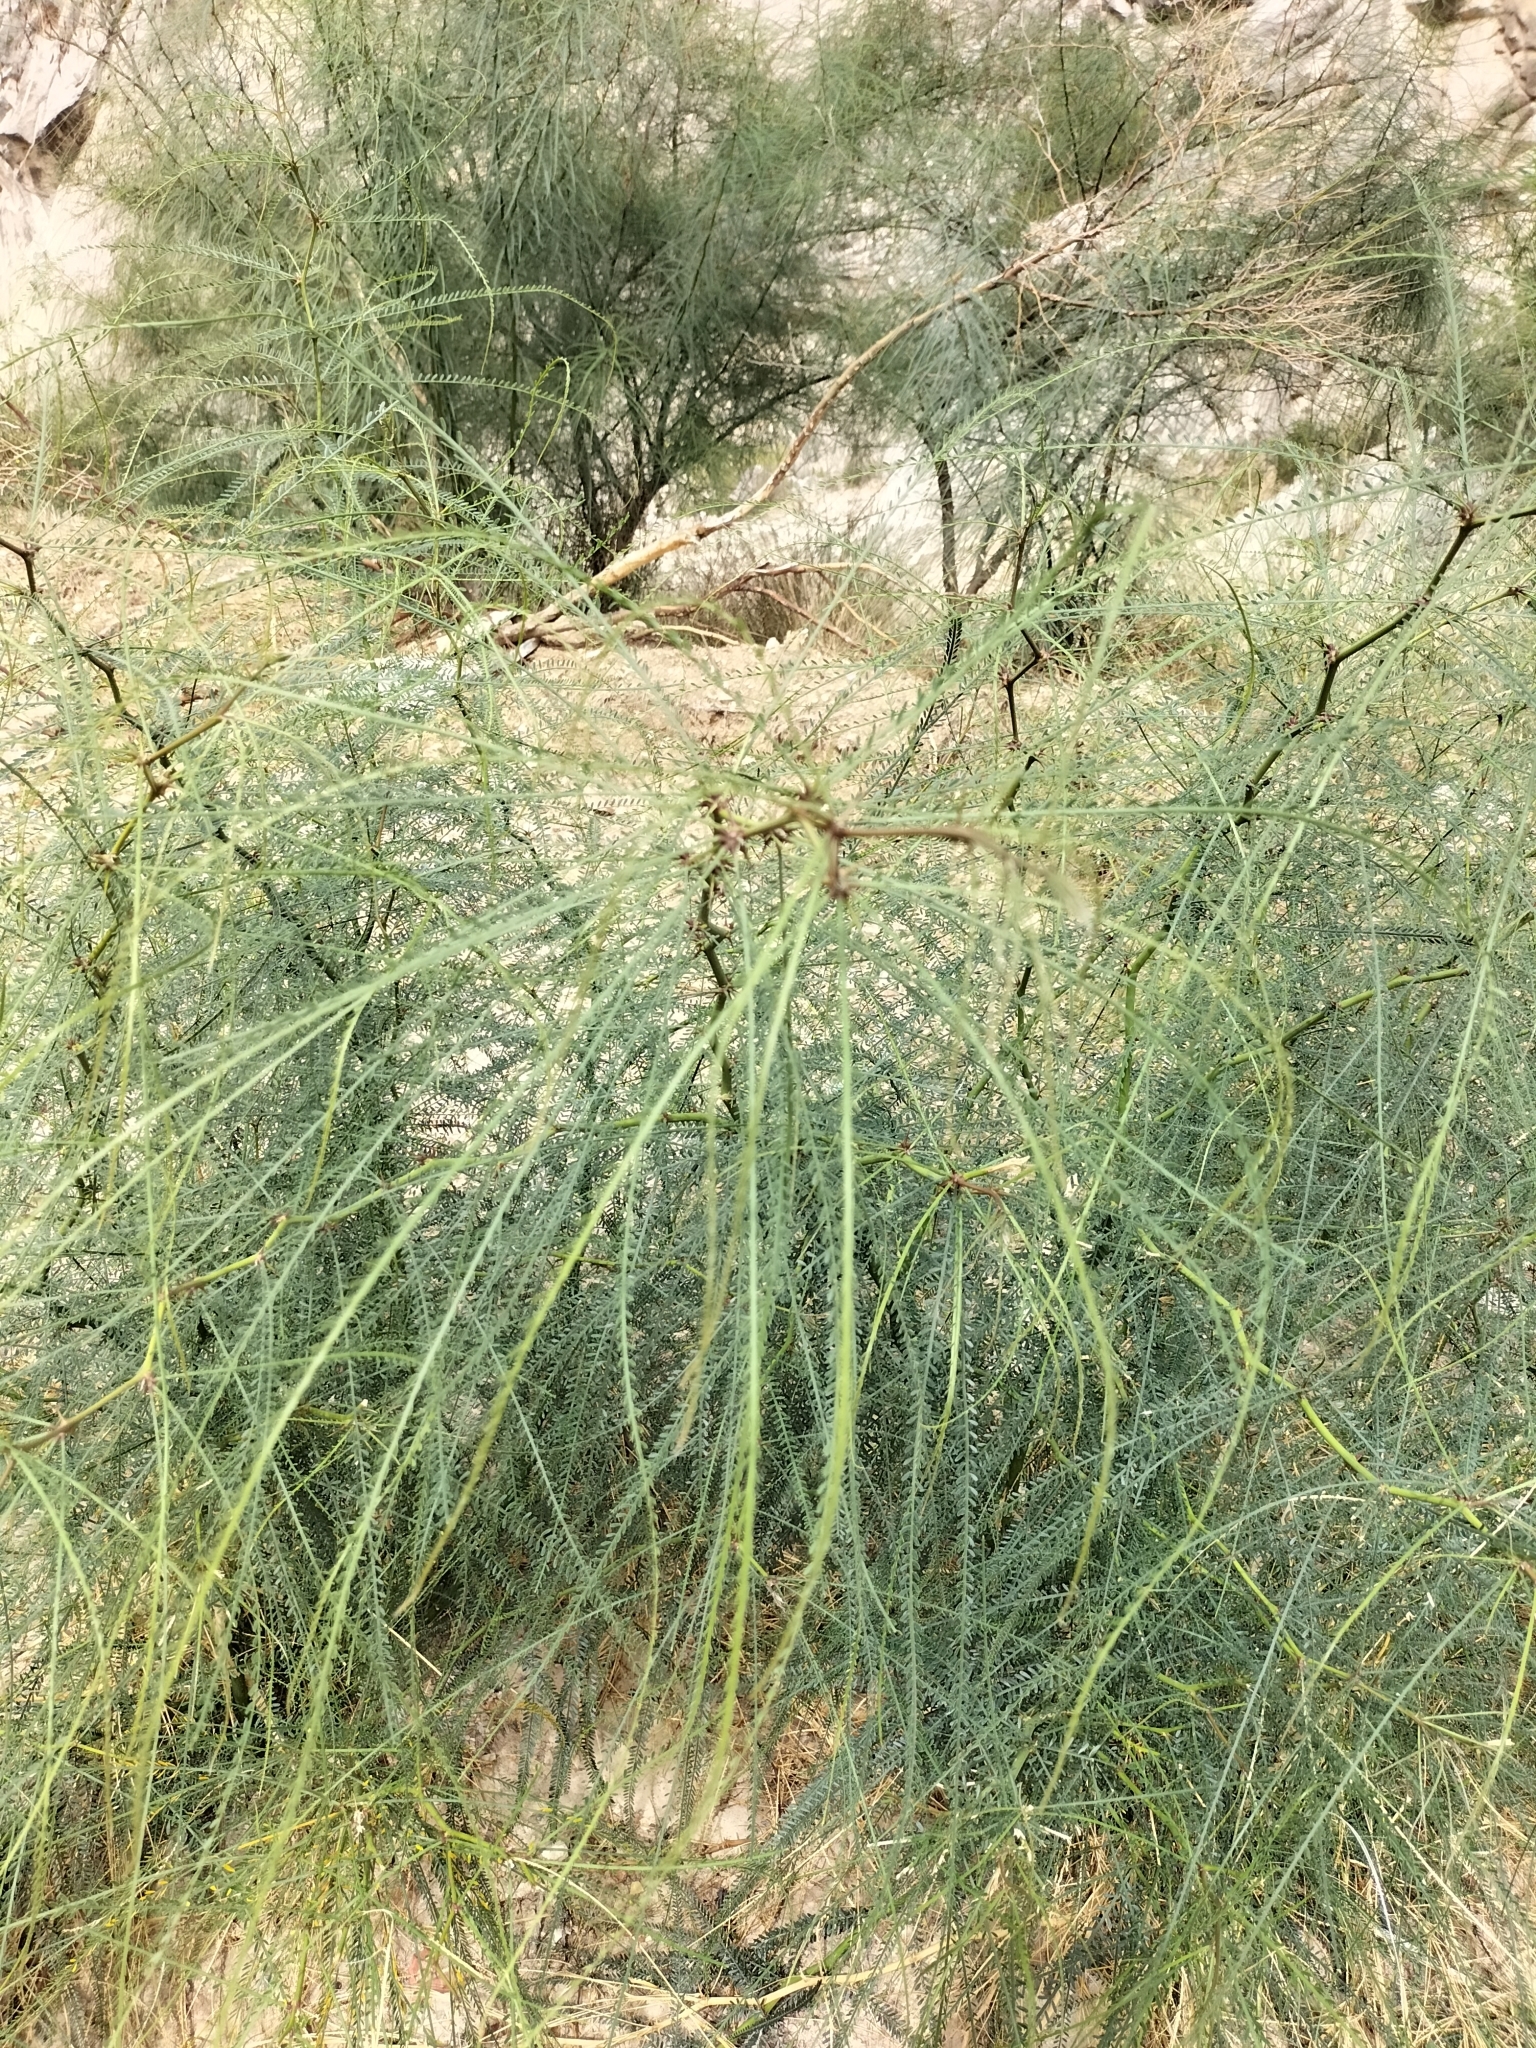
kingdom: Plantae
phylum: Tracheophyta
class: Magnoliopsida
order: Fabales
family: Fabaceae
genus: Parkinsonia
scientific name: Parkinsonia aculeata
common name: Jerusalem thorn
